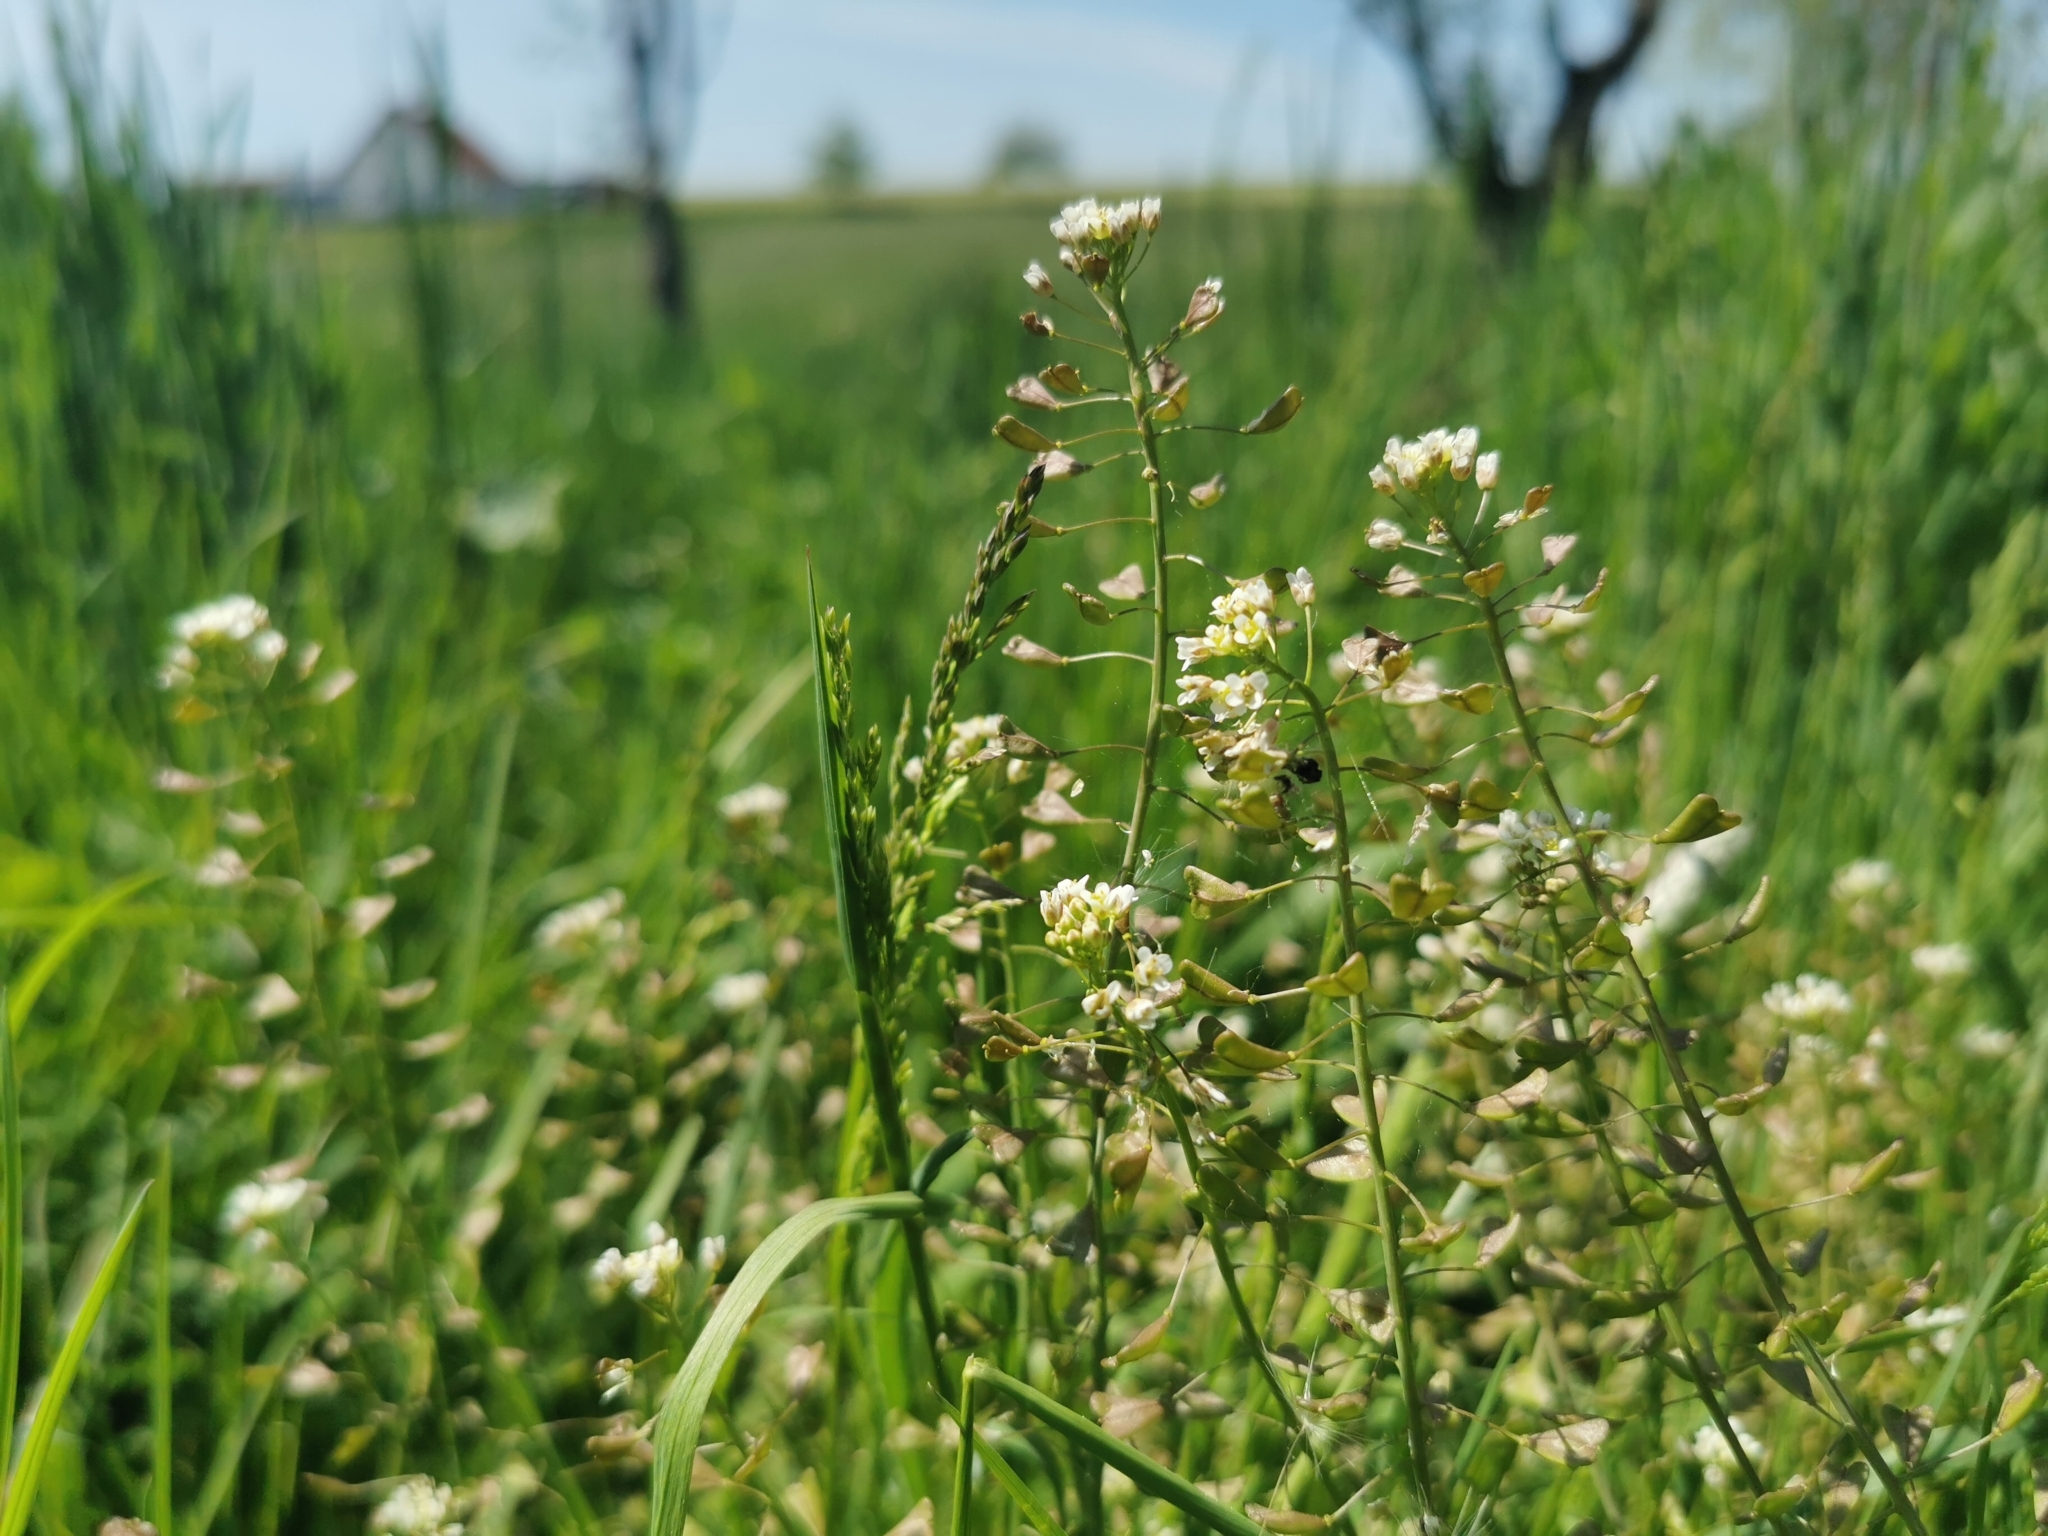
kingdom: Plantae
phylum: Tracheophyta
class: Magnoliopsida
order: Brassicales
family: Brassicaceae
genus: Capsella
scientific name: Capsella bursa-pastoris
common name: Shepherd's purse
